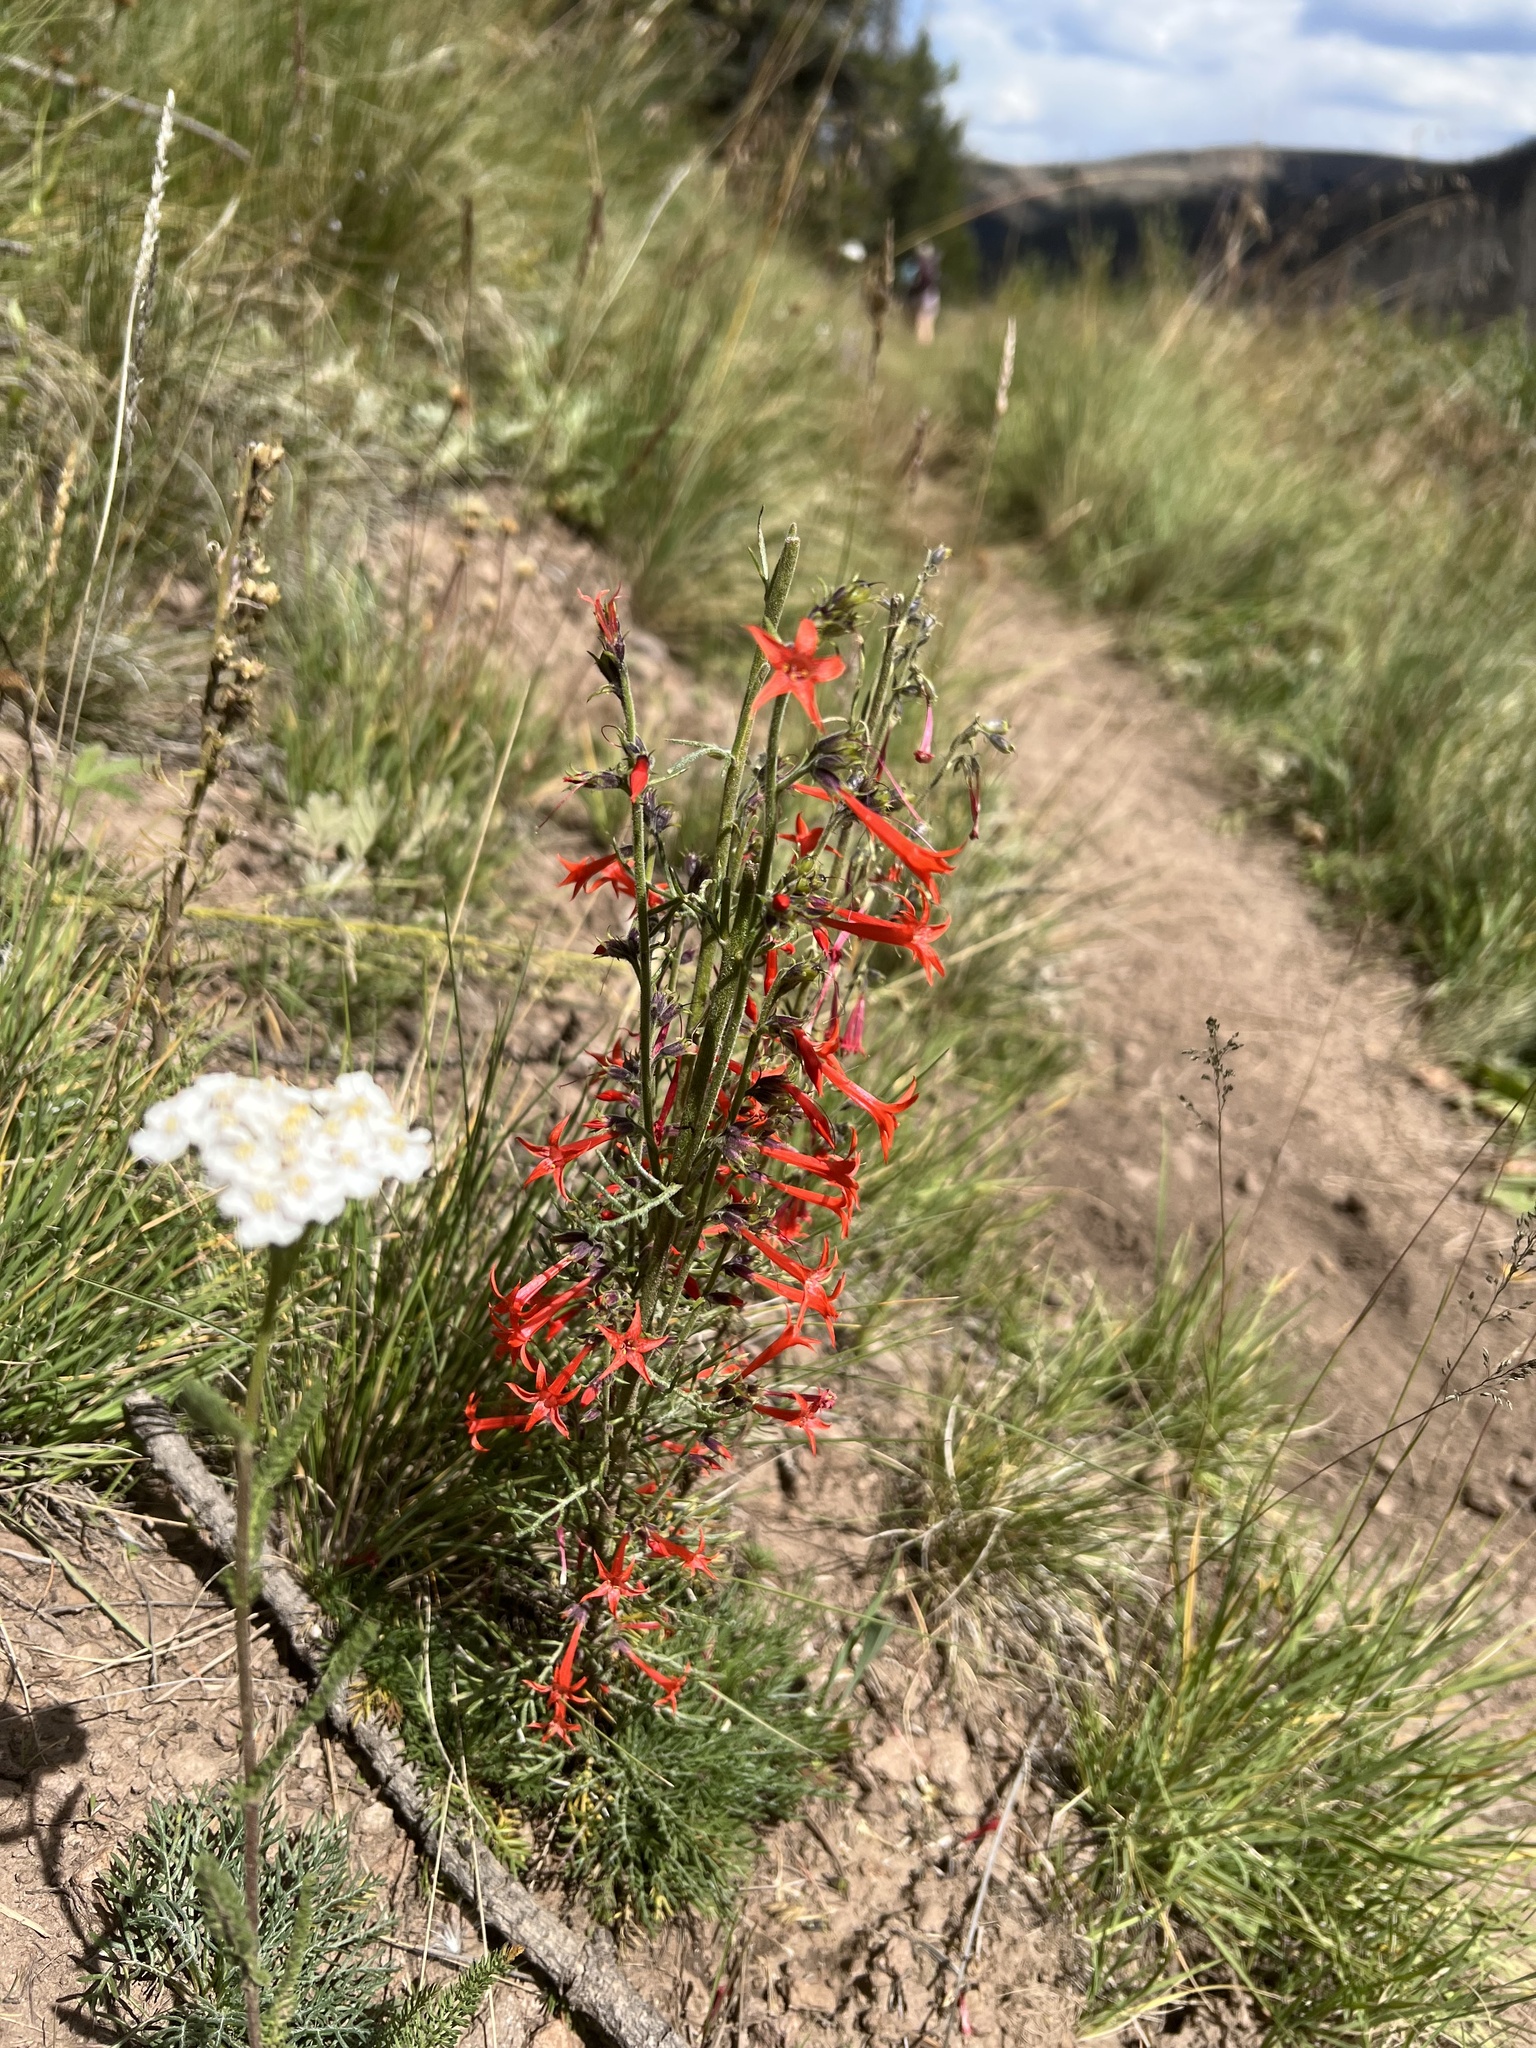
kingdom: Plantae
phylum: Tracheophyta
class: Magnoliopsida
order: Ericales
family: Polemoniaceae
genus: Ipomopsis
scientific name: Ipomopsis aggregata
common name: Scarlet gilia
